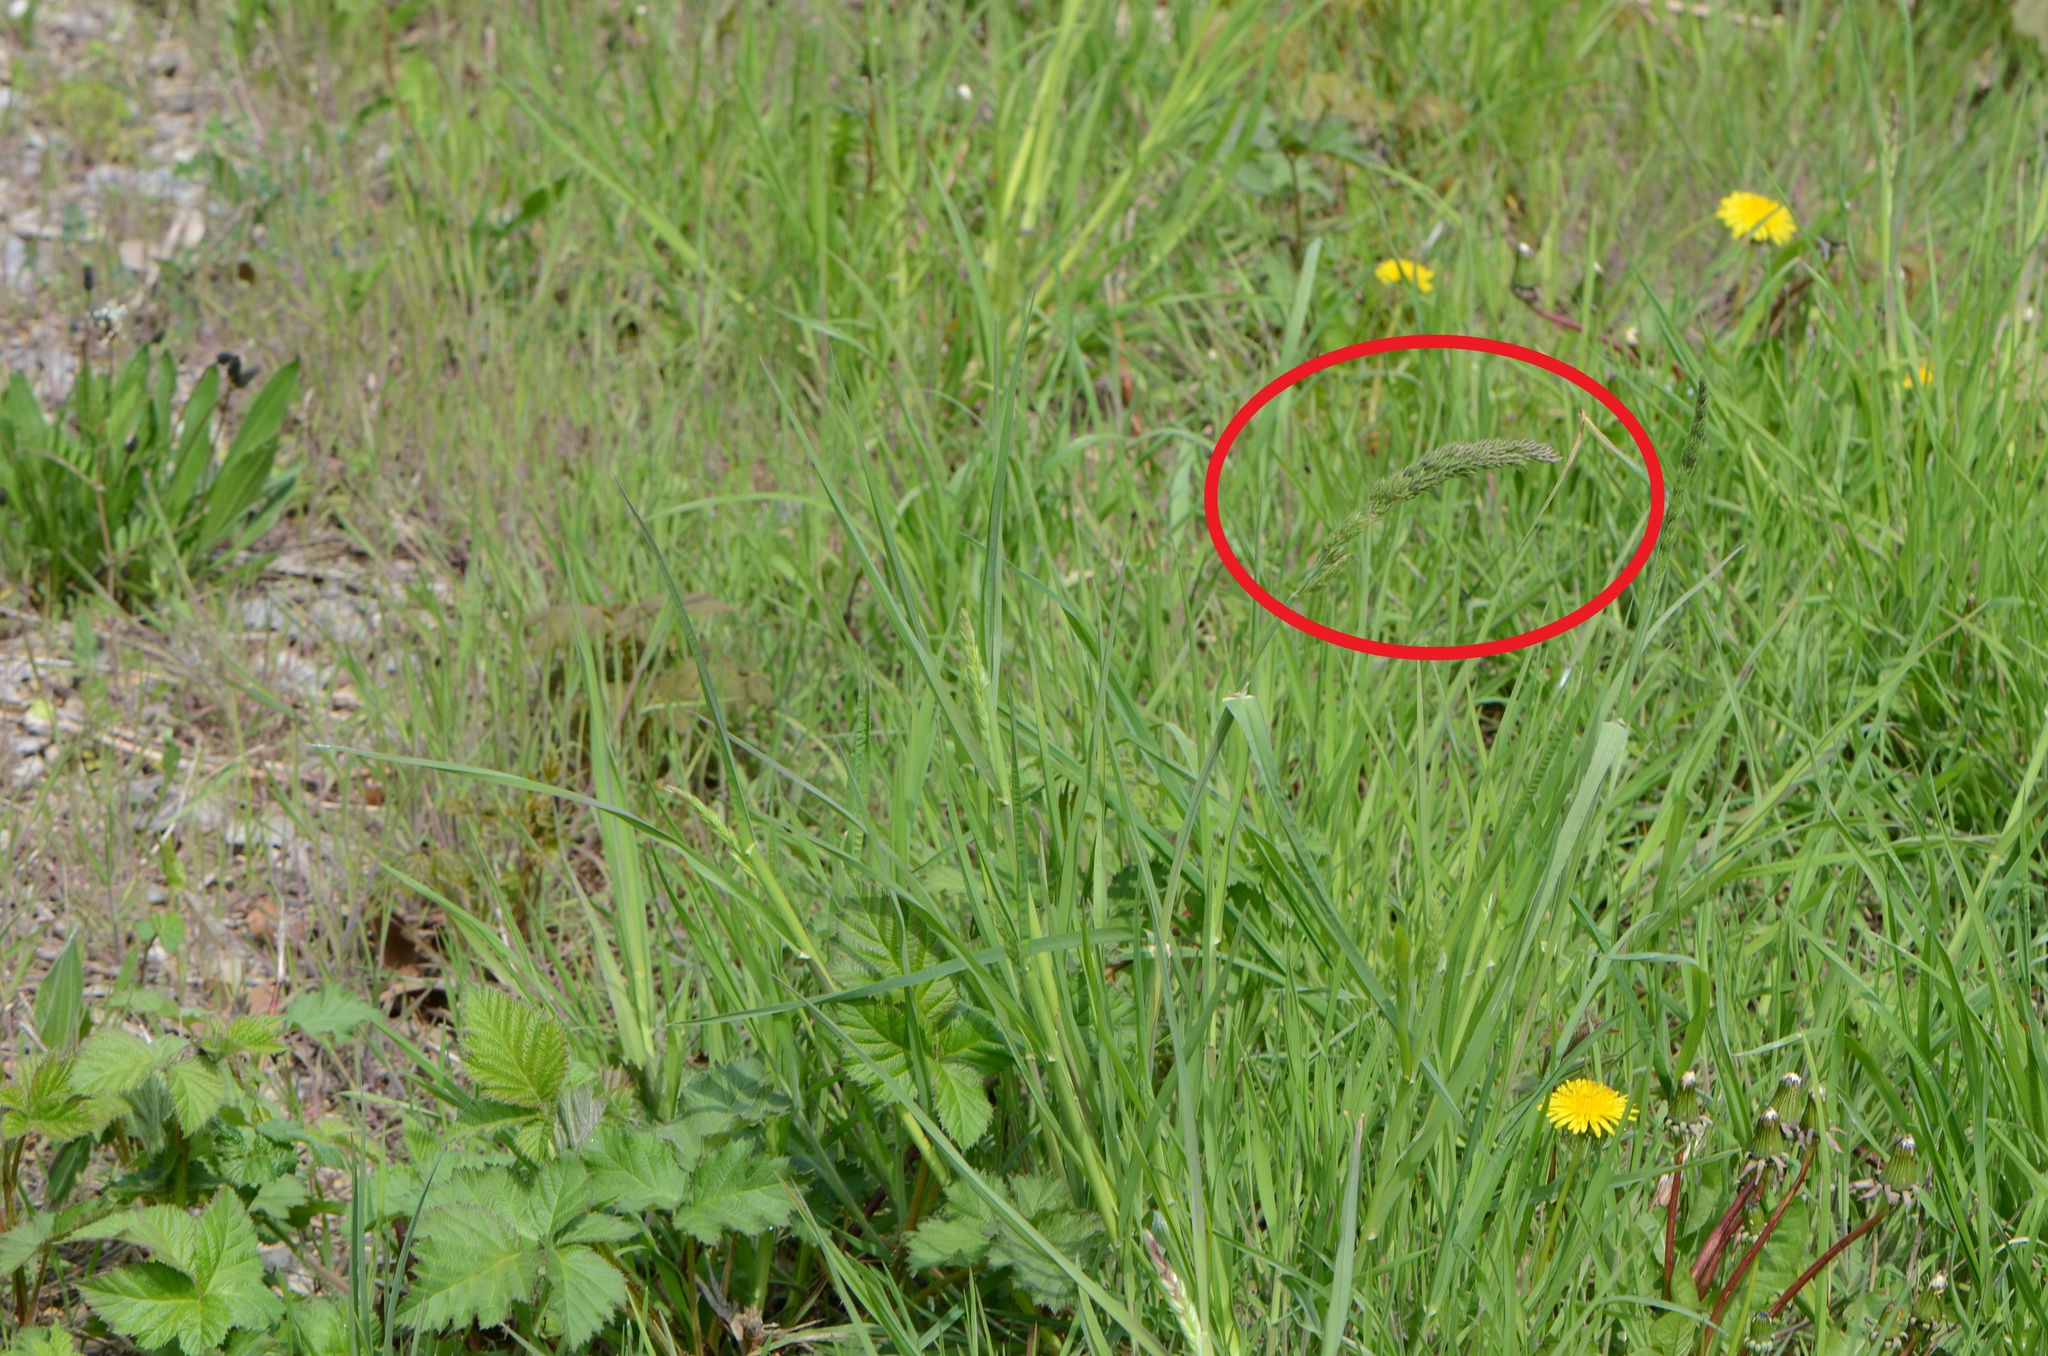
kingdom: Plantae
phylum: Tracheophyta
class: Liliopsida
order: Poales
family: Poaceae
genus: Dactylis
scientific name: Dactylis glomerata
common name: Orchardgrass
